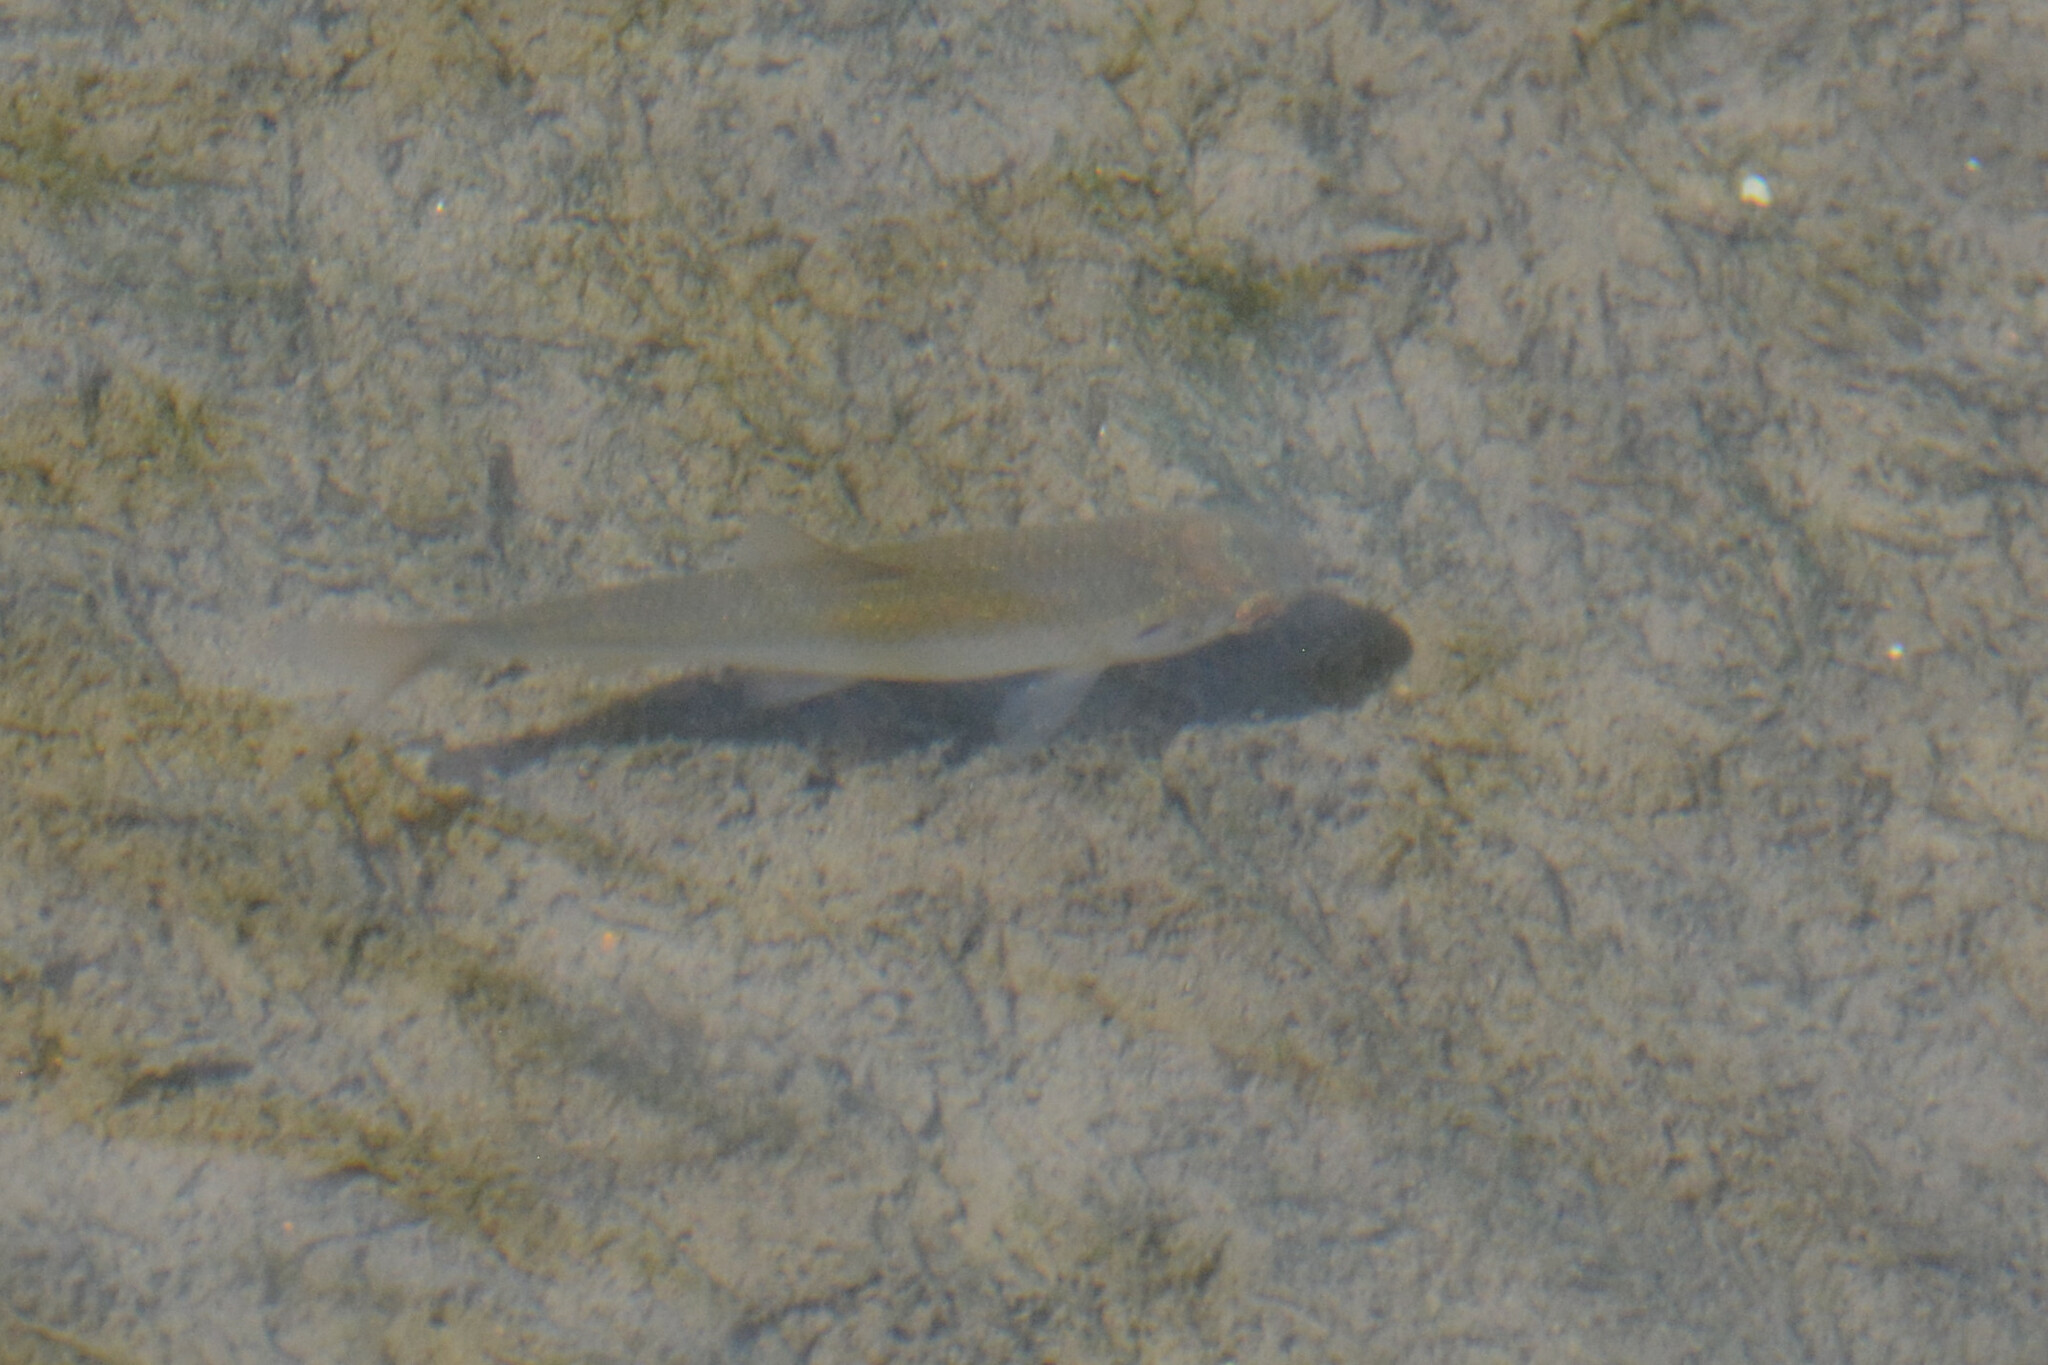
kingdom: Animalia
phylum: Chordata
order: Cypriniformes
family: Cyprinidae
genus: Rutilus
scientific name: Rutilus rutilus
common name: Roach
